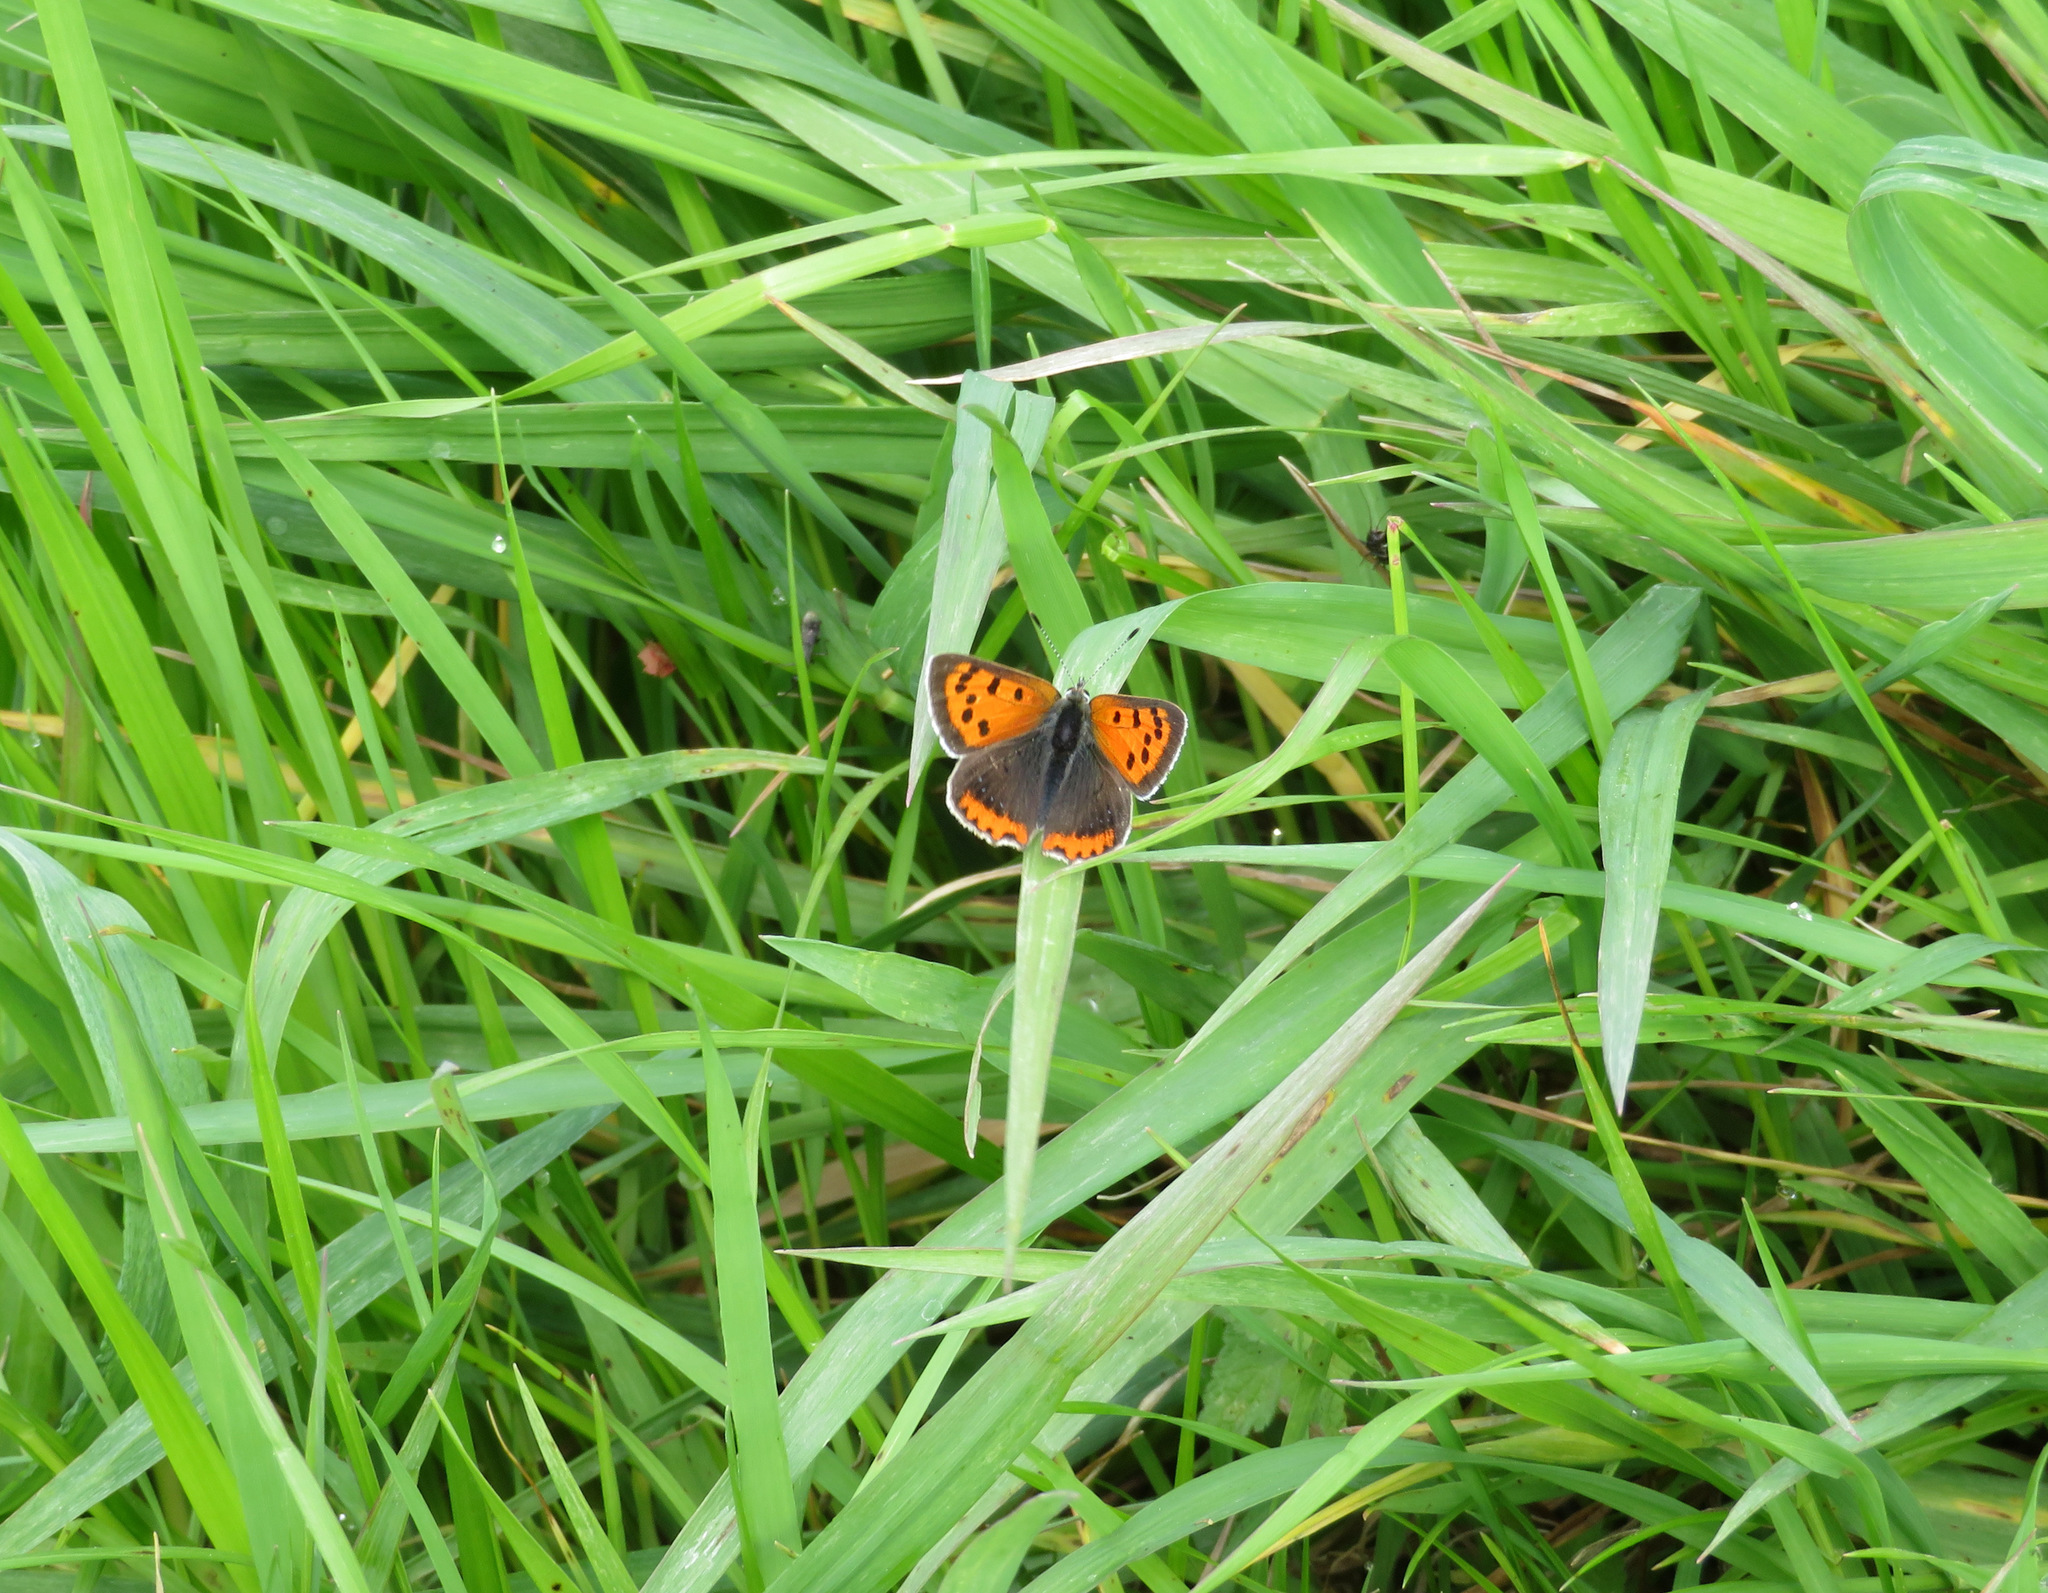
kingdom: Animalia
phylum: Arthropoda
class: Insecta
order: Lepidoptera
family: Lycaenidae
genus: Lycaena
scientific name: Lycaena phlaeas
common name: Small copper
